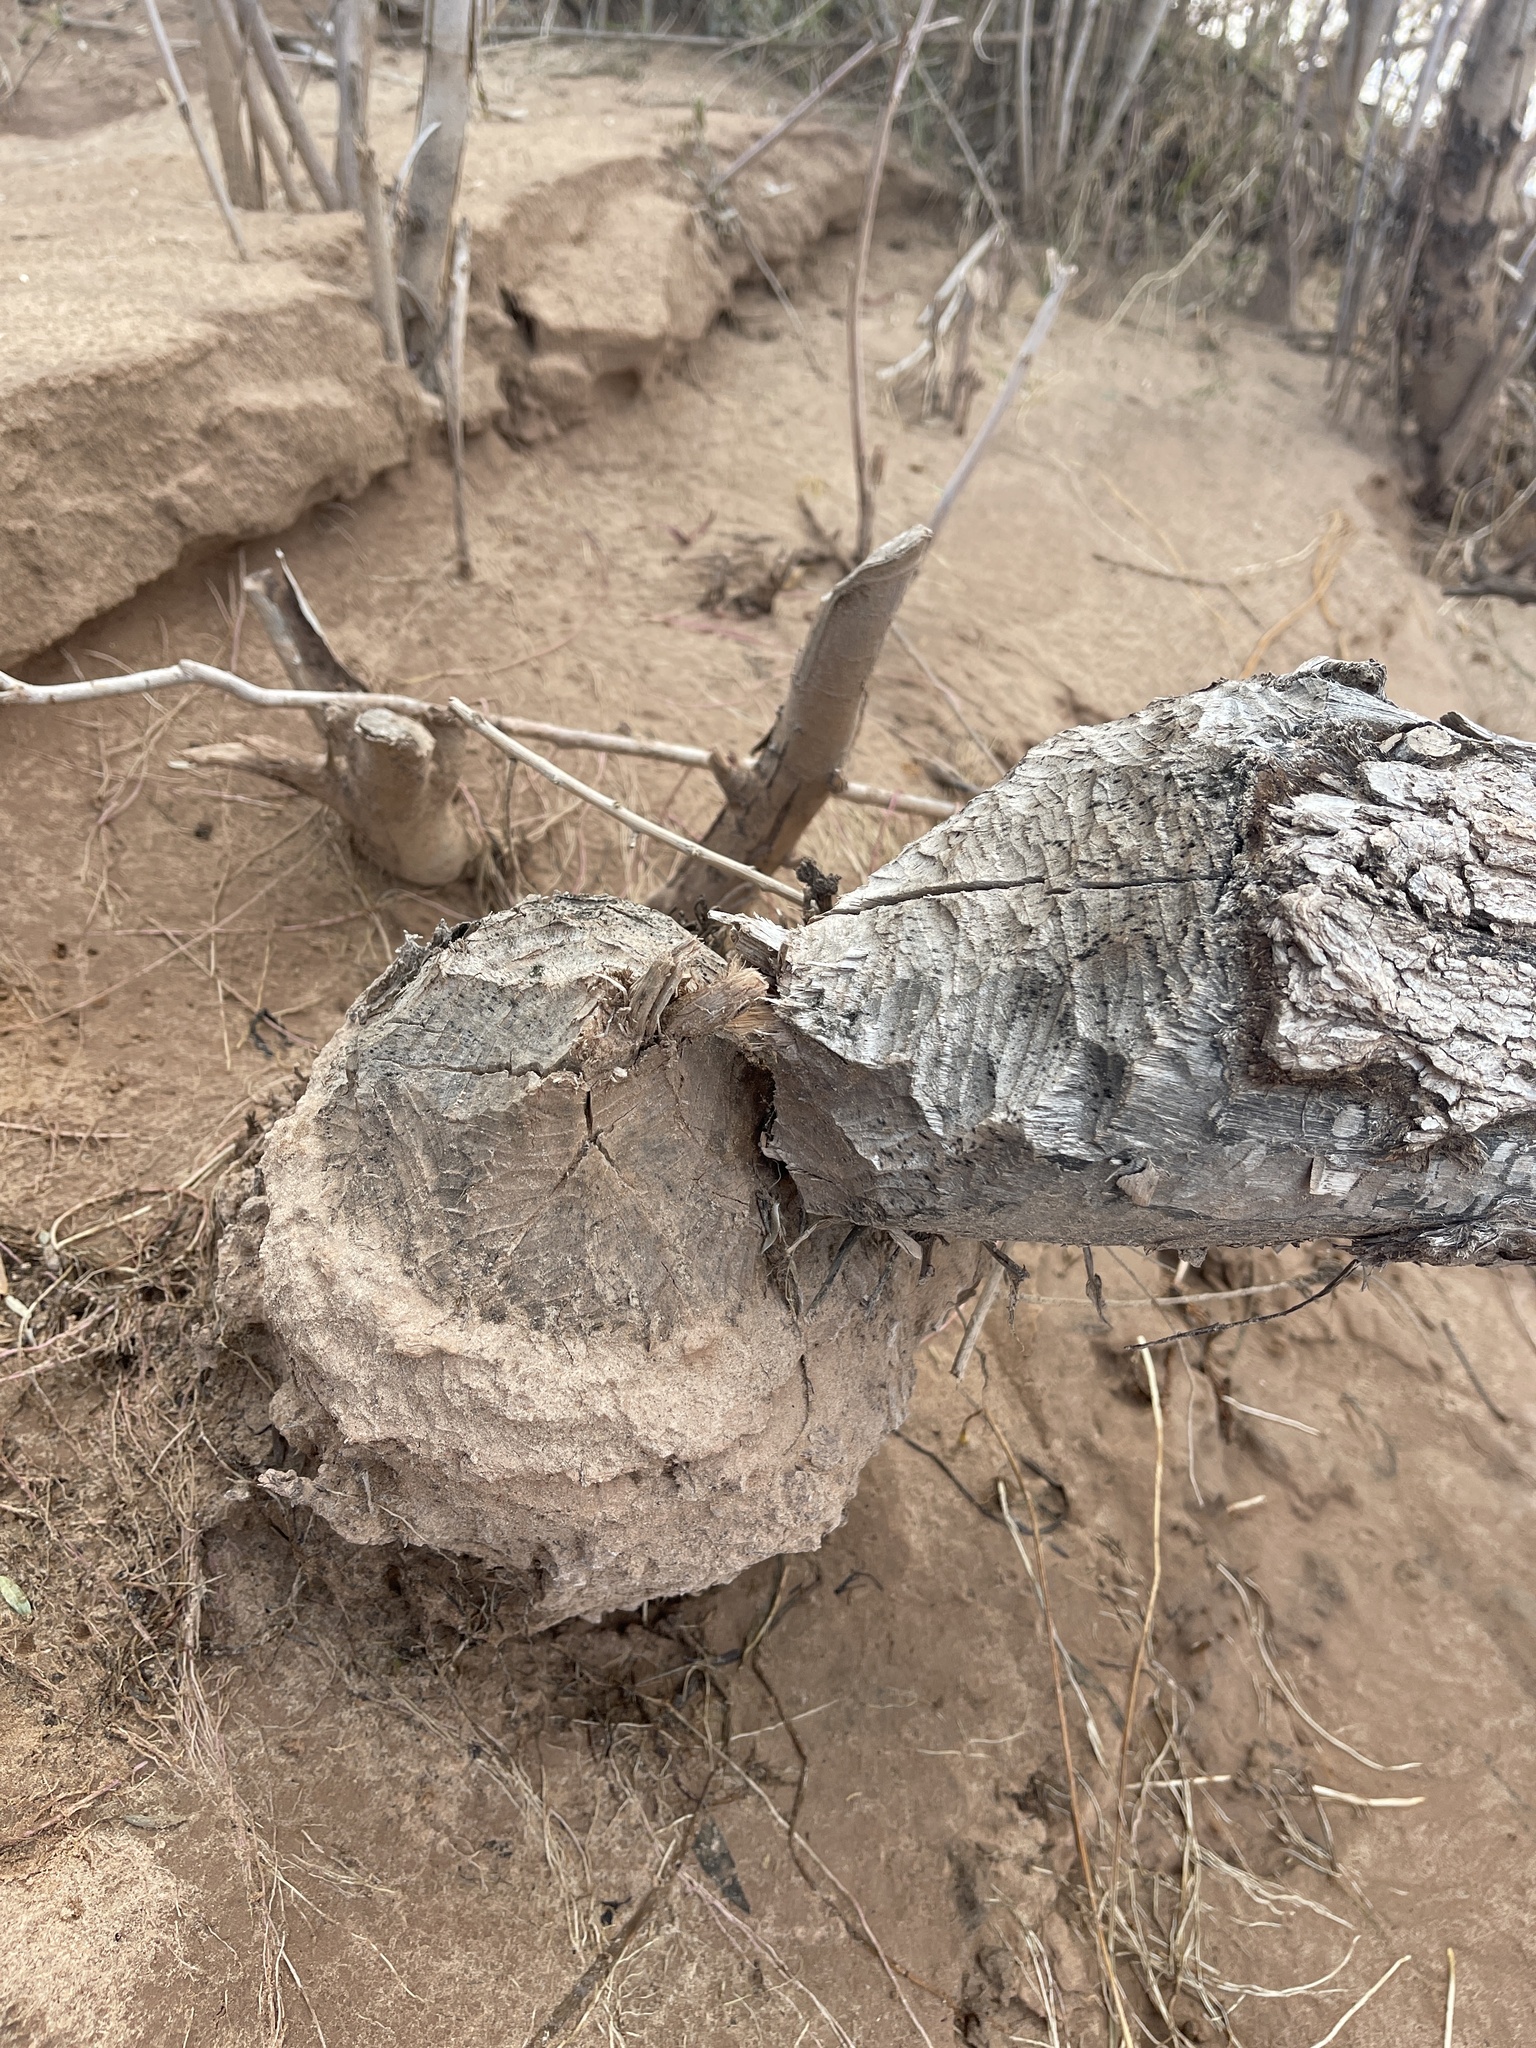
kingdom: Animalia
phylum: Chordata
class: Mammalia
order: Rodentia
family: Castoridae
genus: Castor
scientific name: Castor canadensis
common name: American beaver
